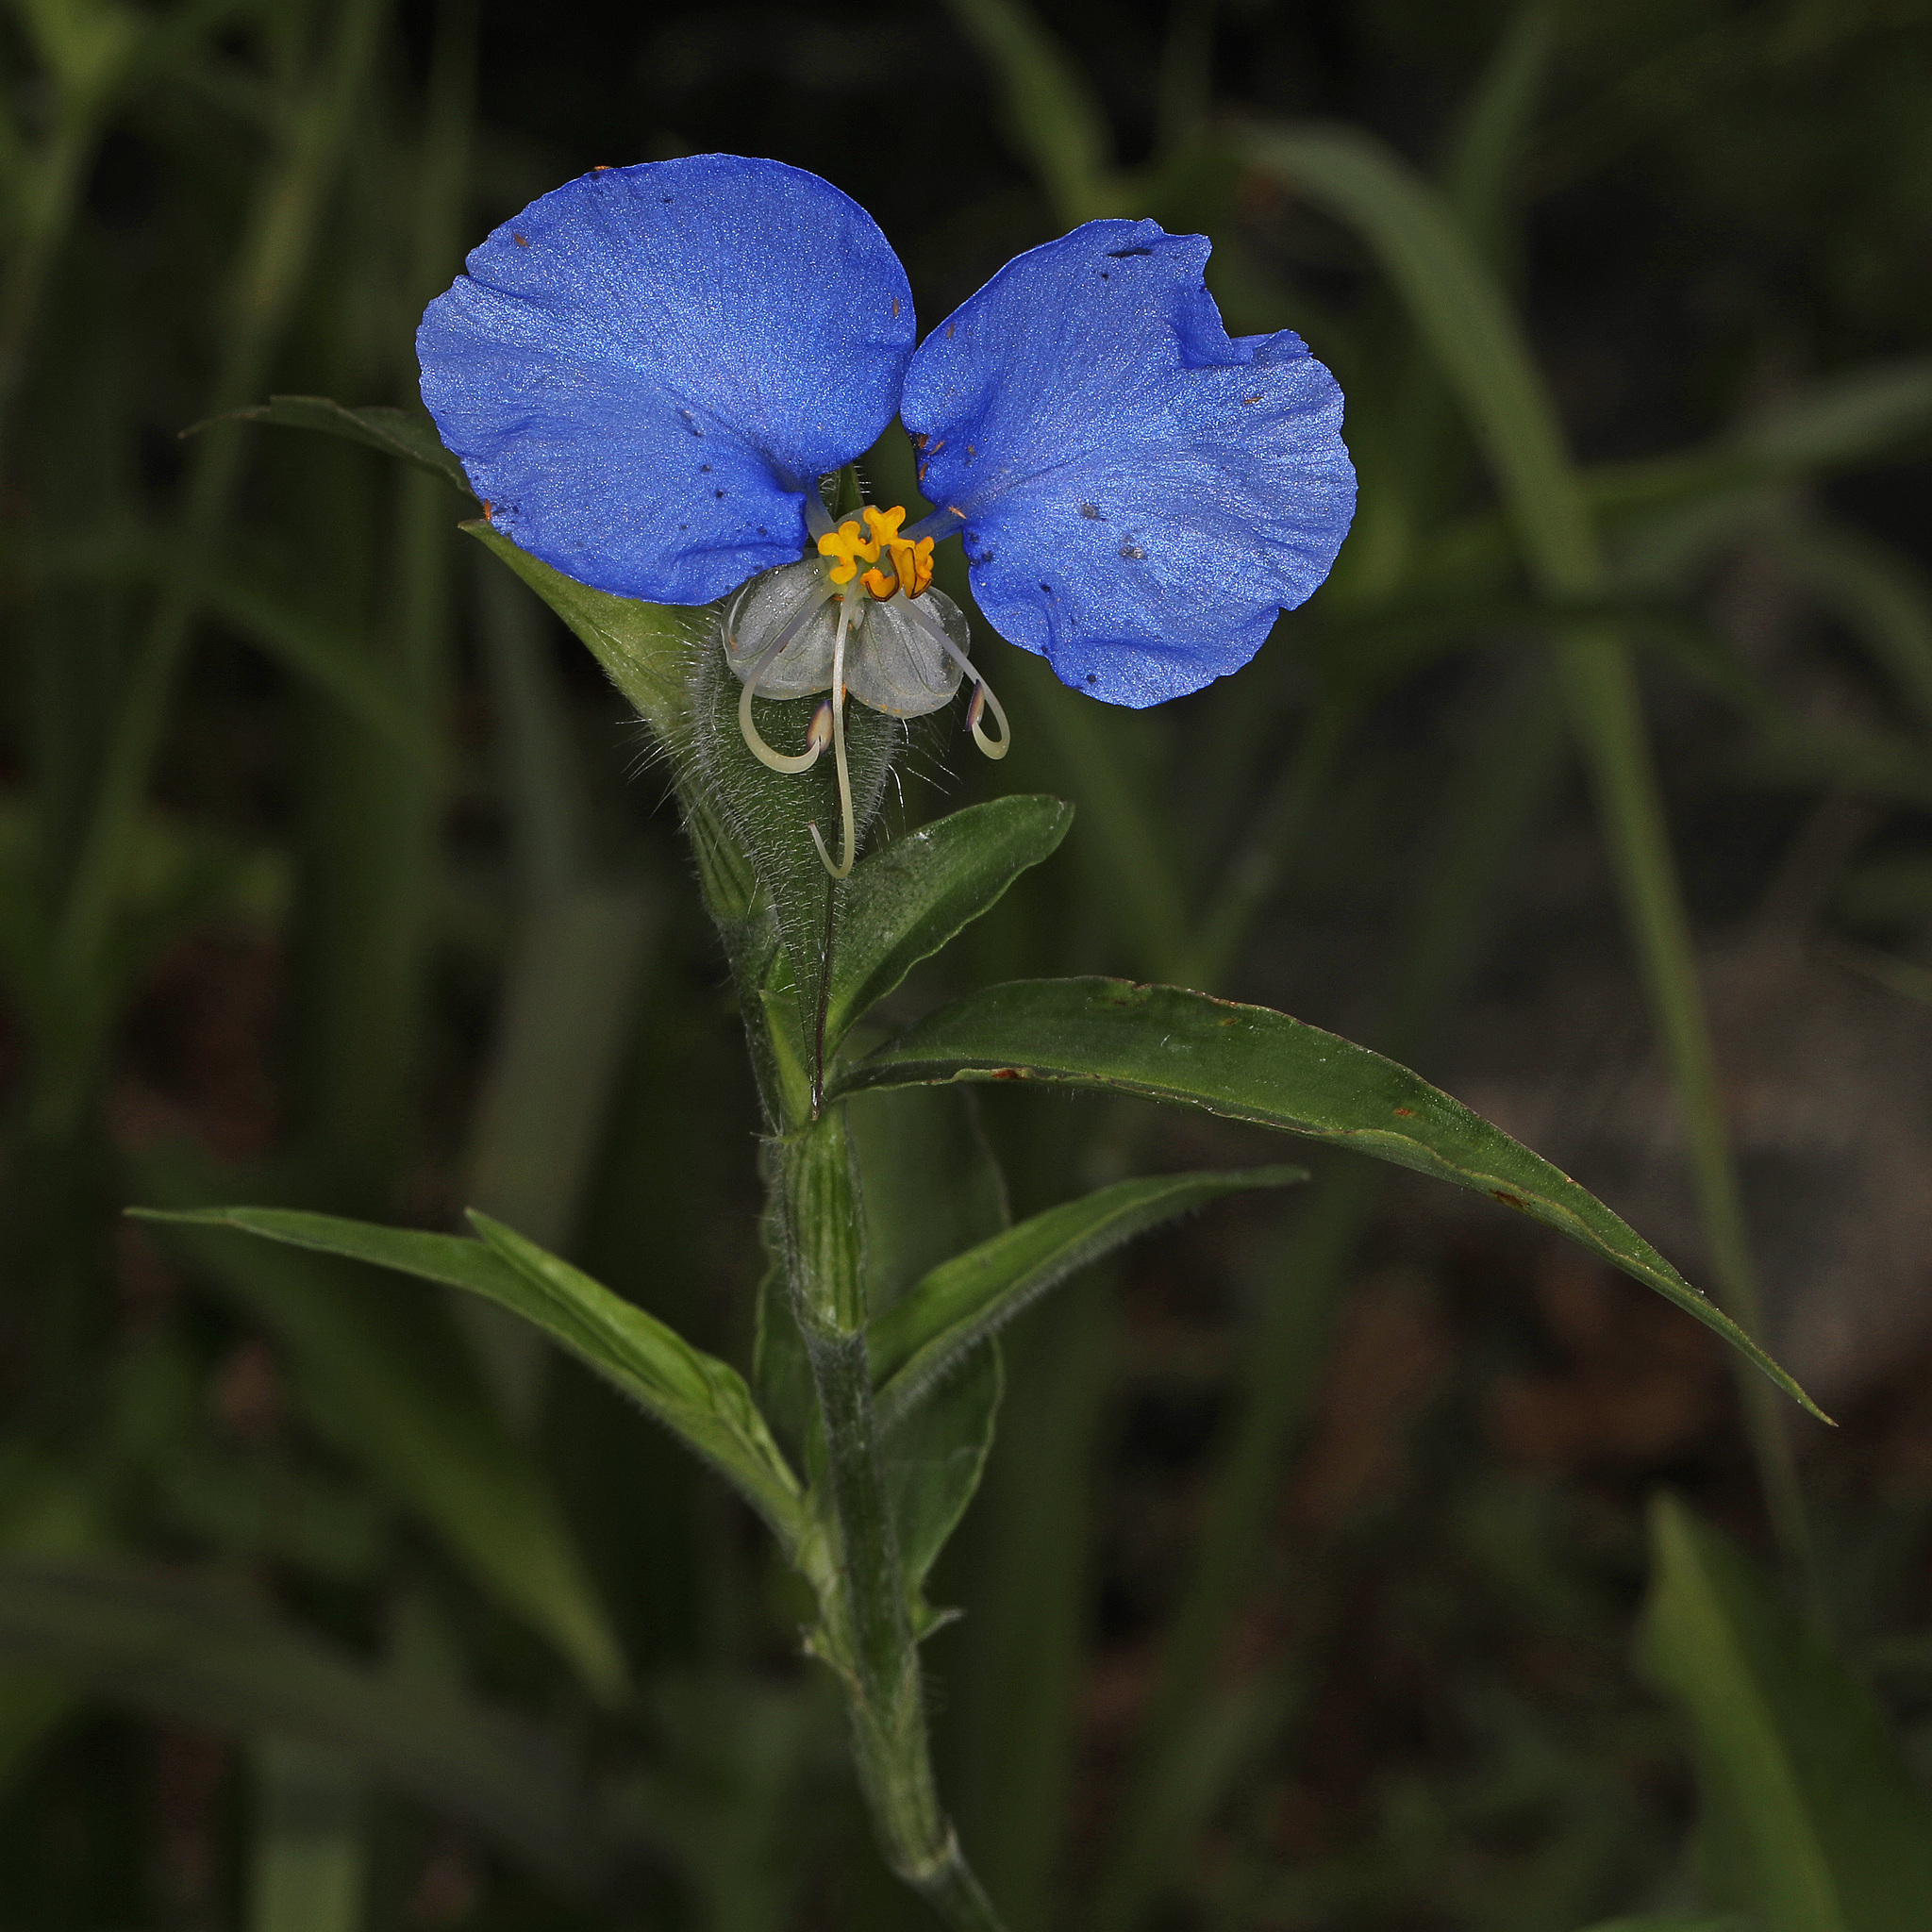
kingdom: Plantae
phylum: Tracheophyta
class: Liliopsida
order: Commelinales
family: Commelinaceae
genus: Commelina
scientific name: Commelina erecta
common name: Blousel blommetjie
